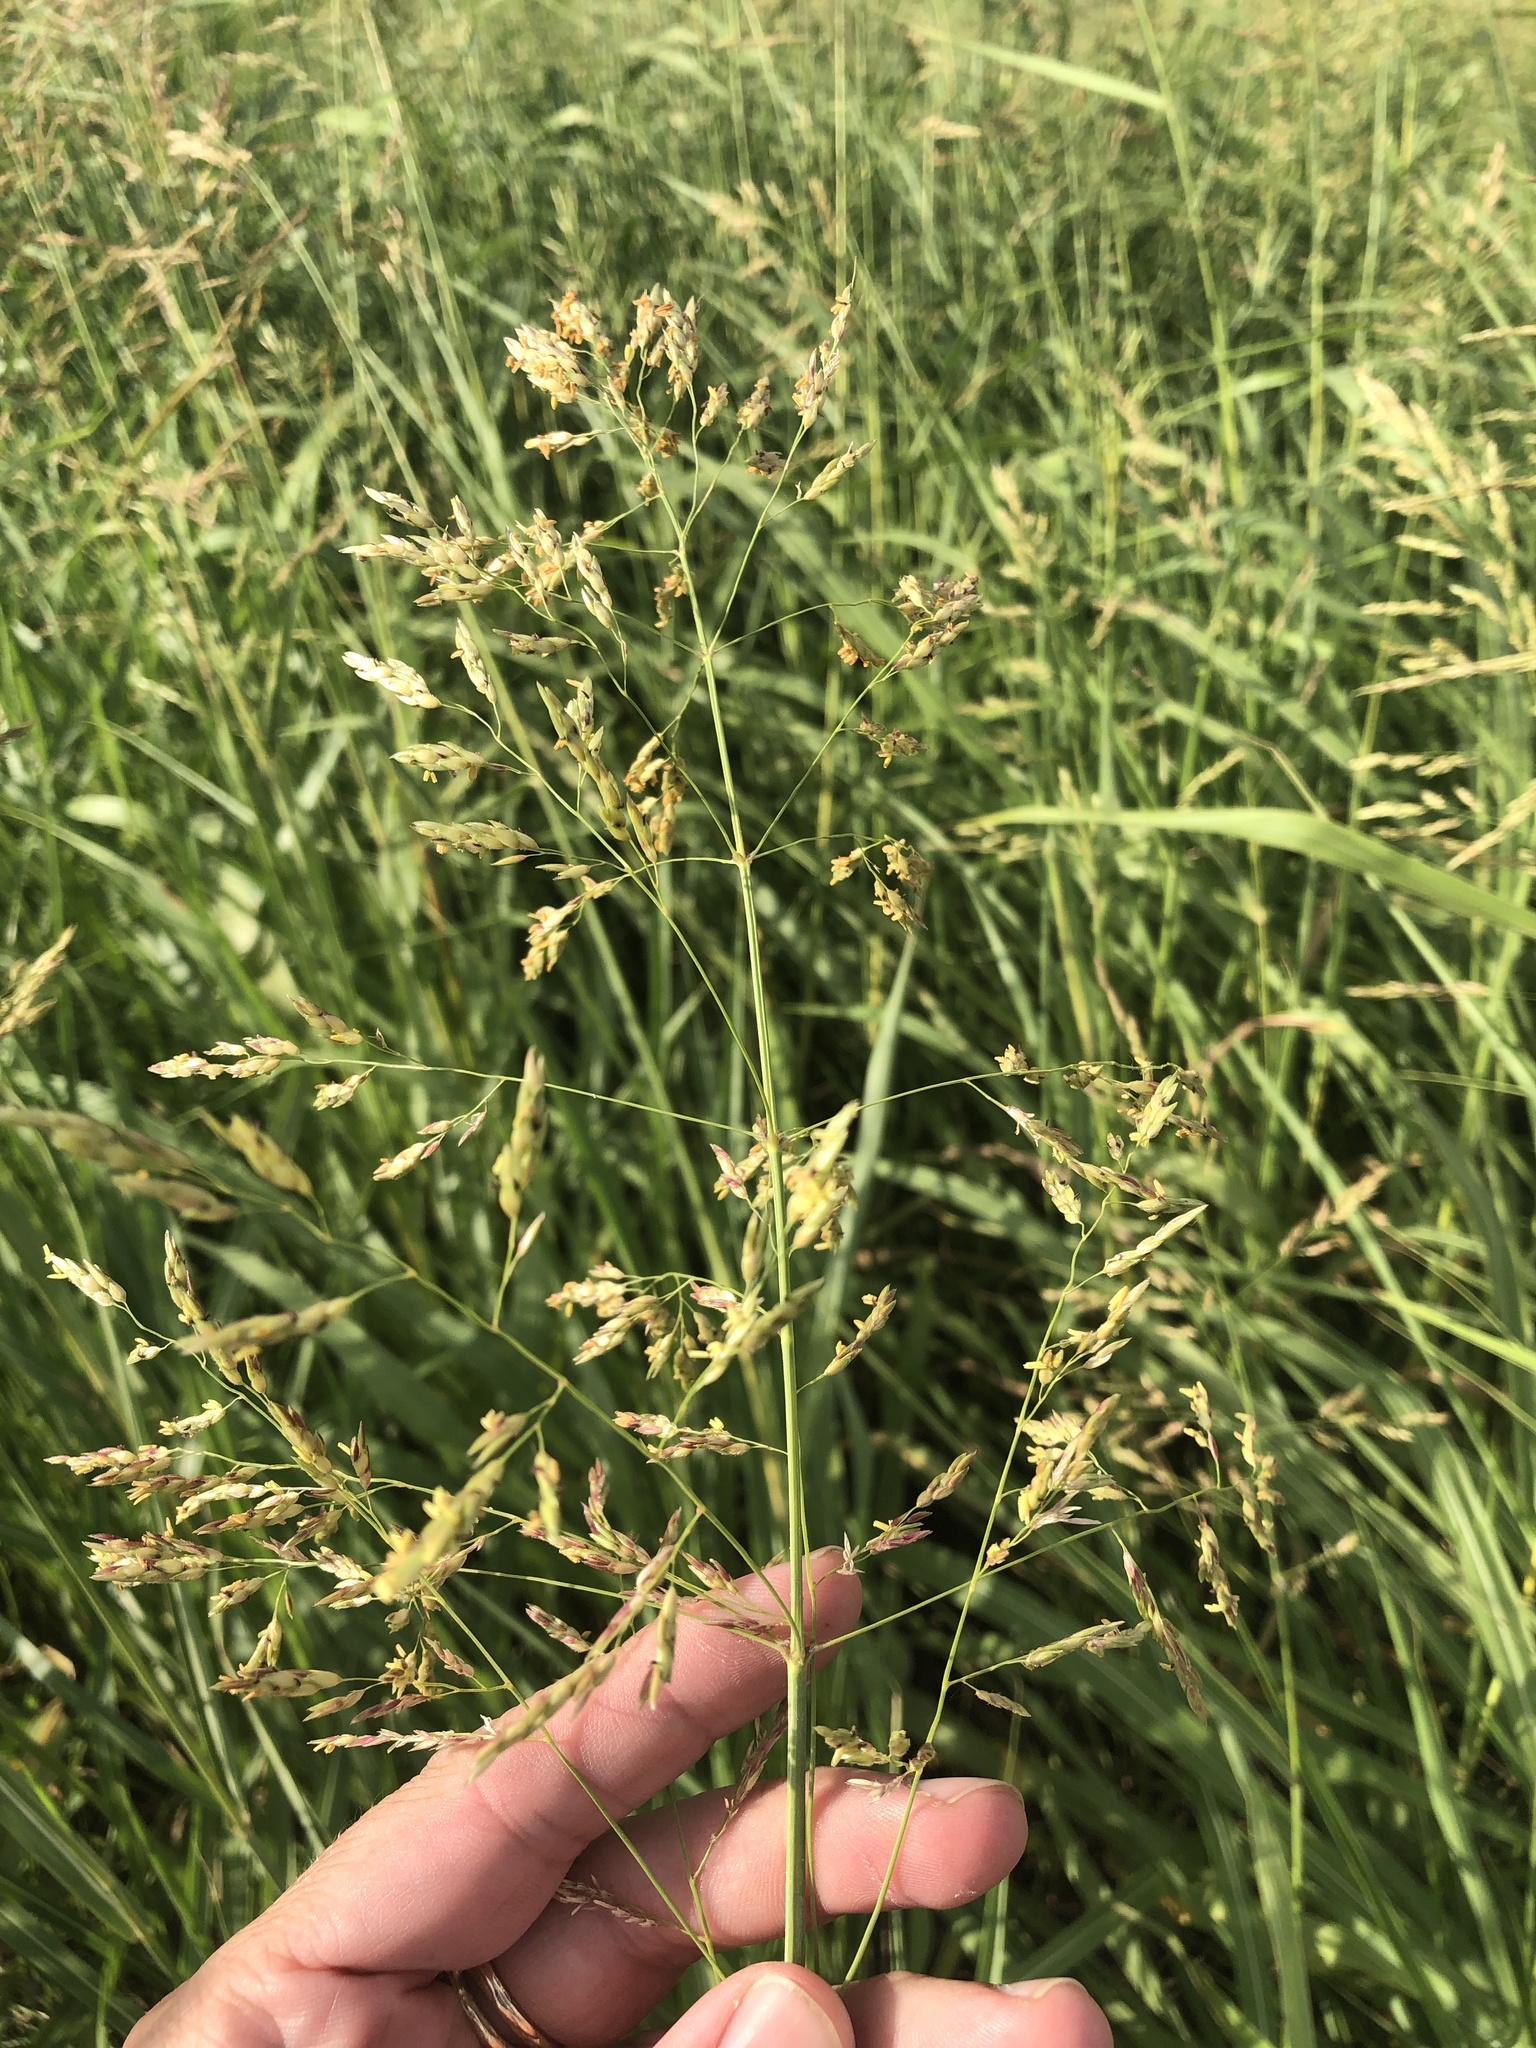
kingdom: Plantae
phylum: Tracheophyta
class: Liliopsida
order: Poales
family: Poaceae
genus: Sorghum
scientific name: Sorghum halepense
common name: Johnson-grass
